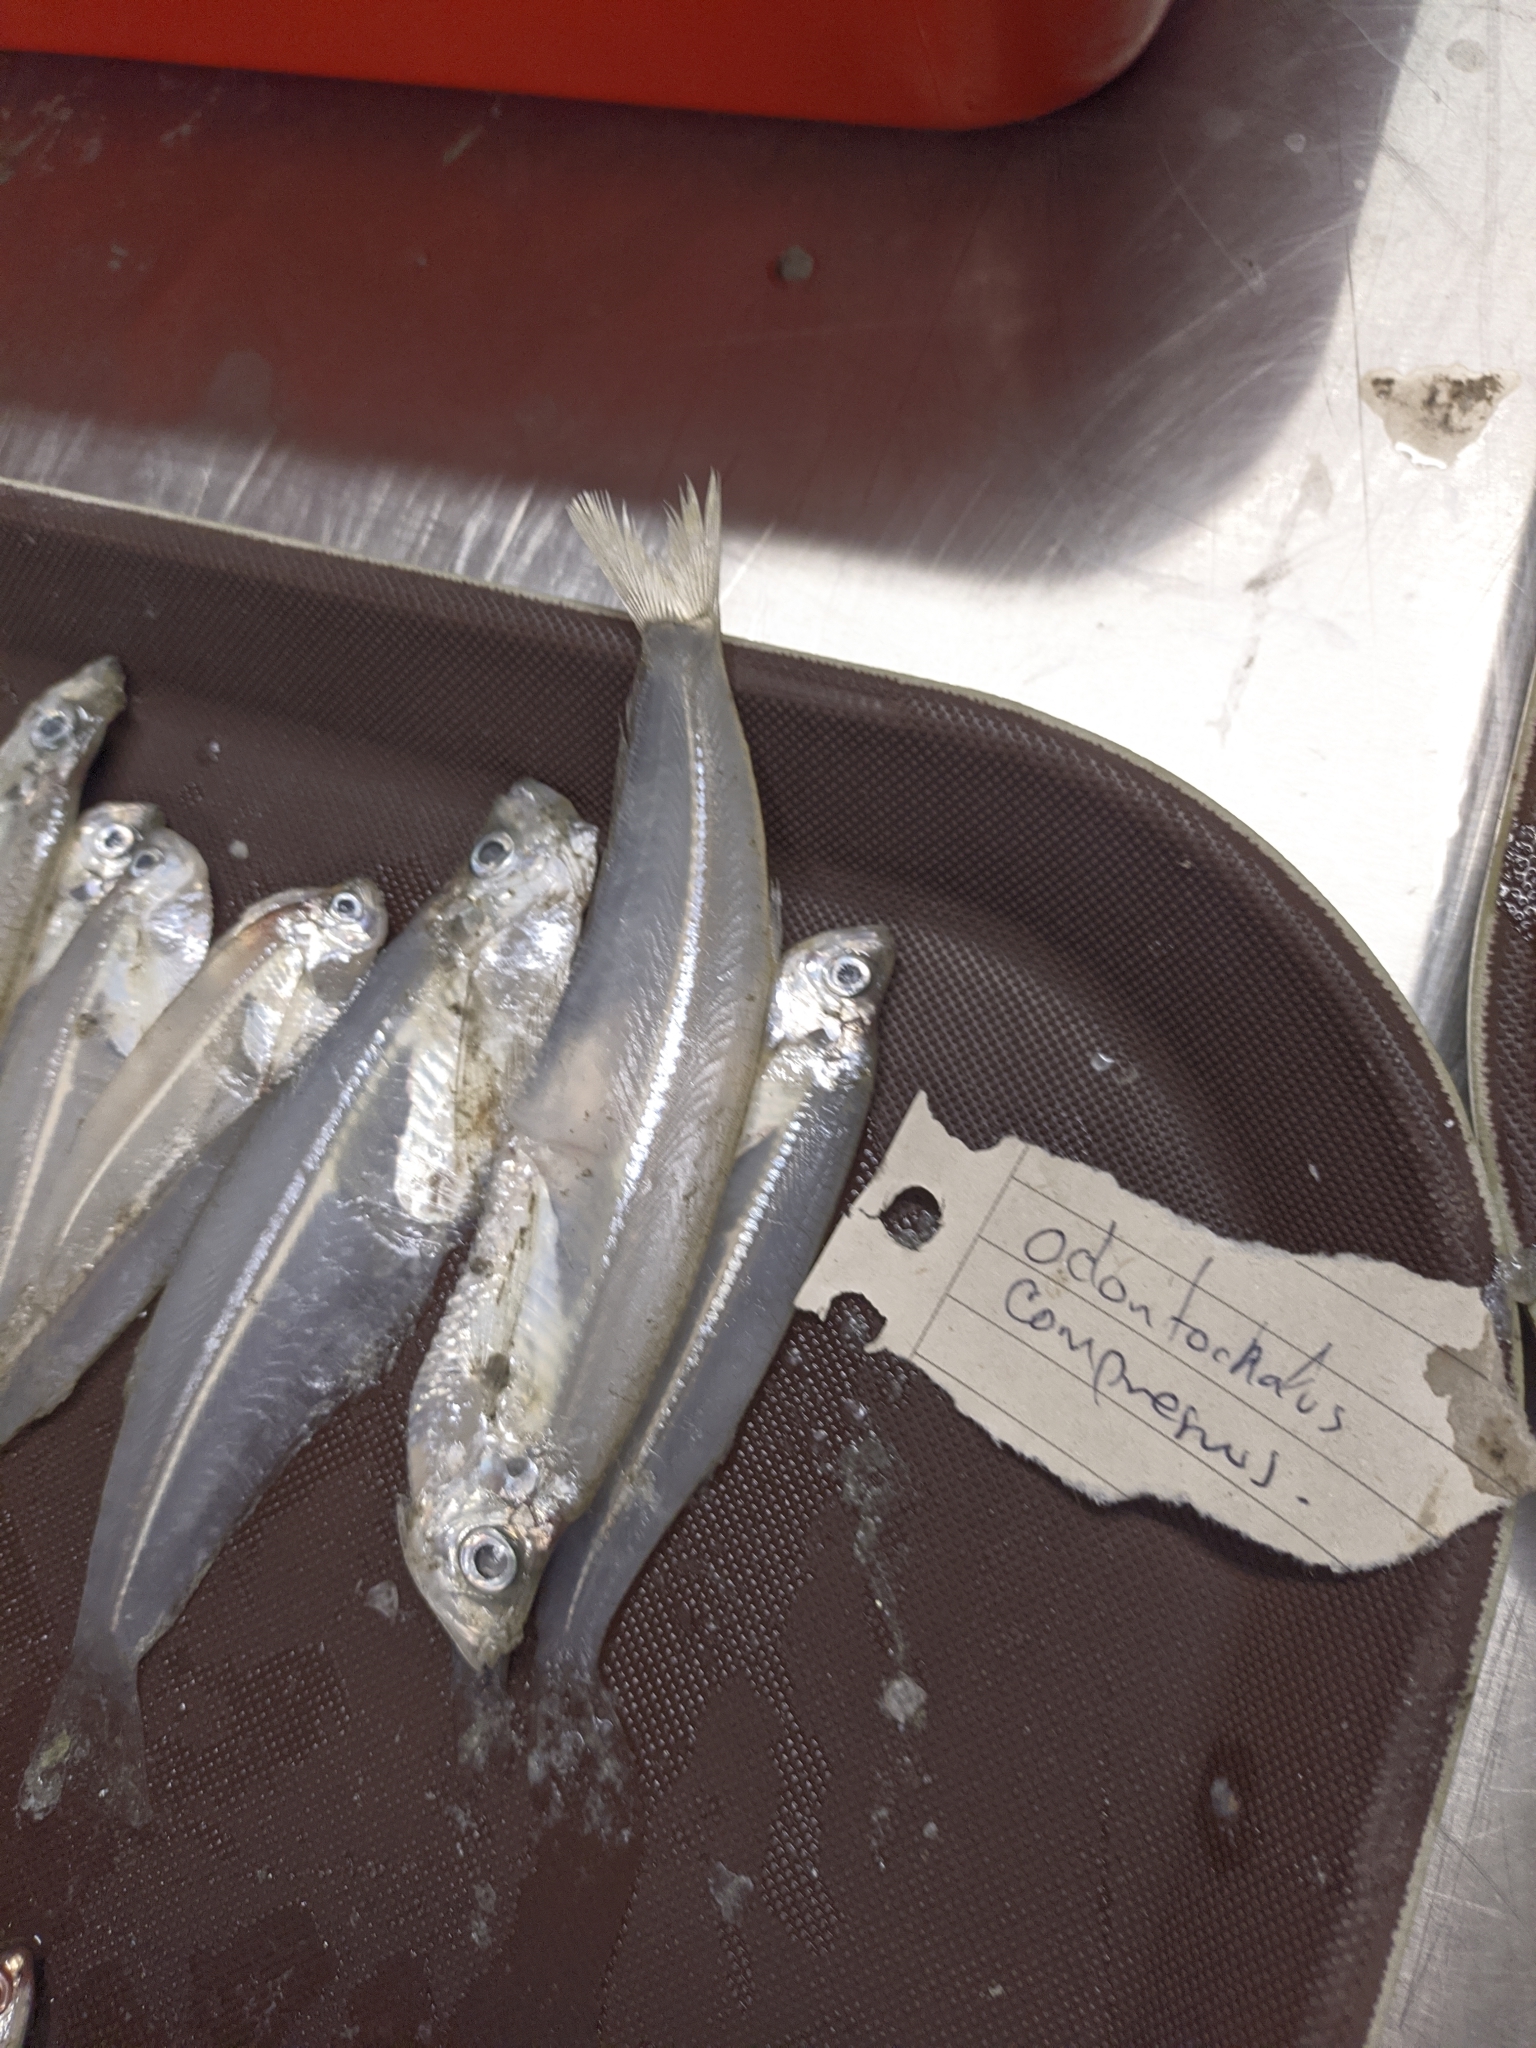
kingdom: Animalia
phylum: Chordata
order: Clupeiformes
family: Pristigasteridae
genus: Odontognathus
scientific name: Odontognathus compressus
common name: Caribbean longfin herring
